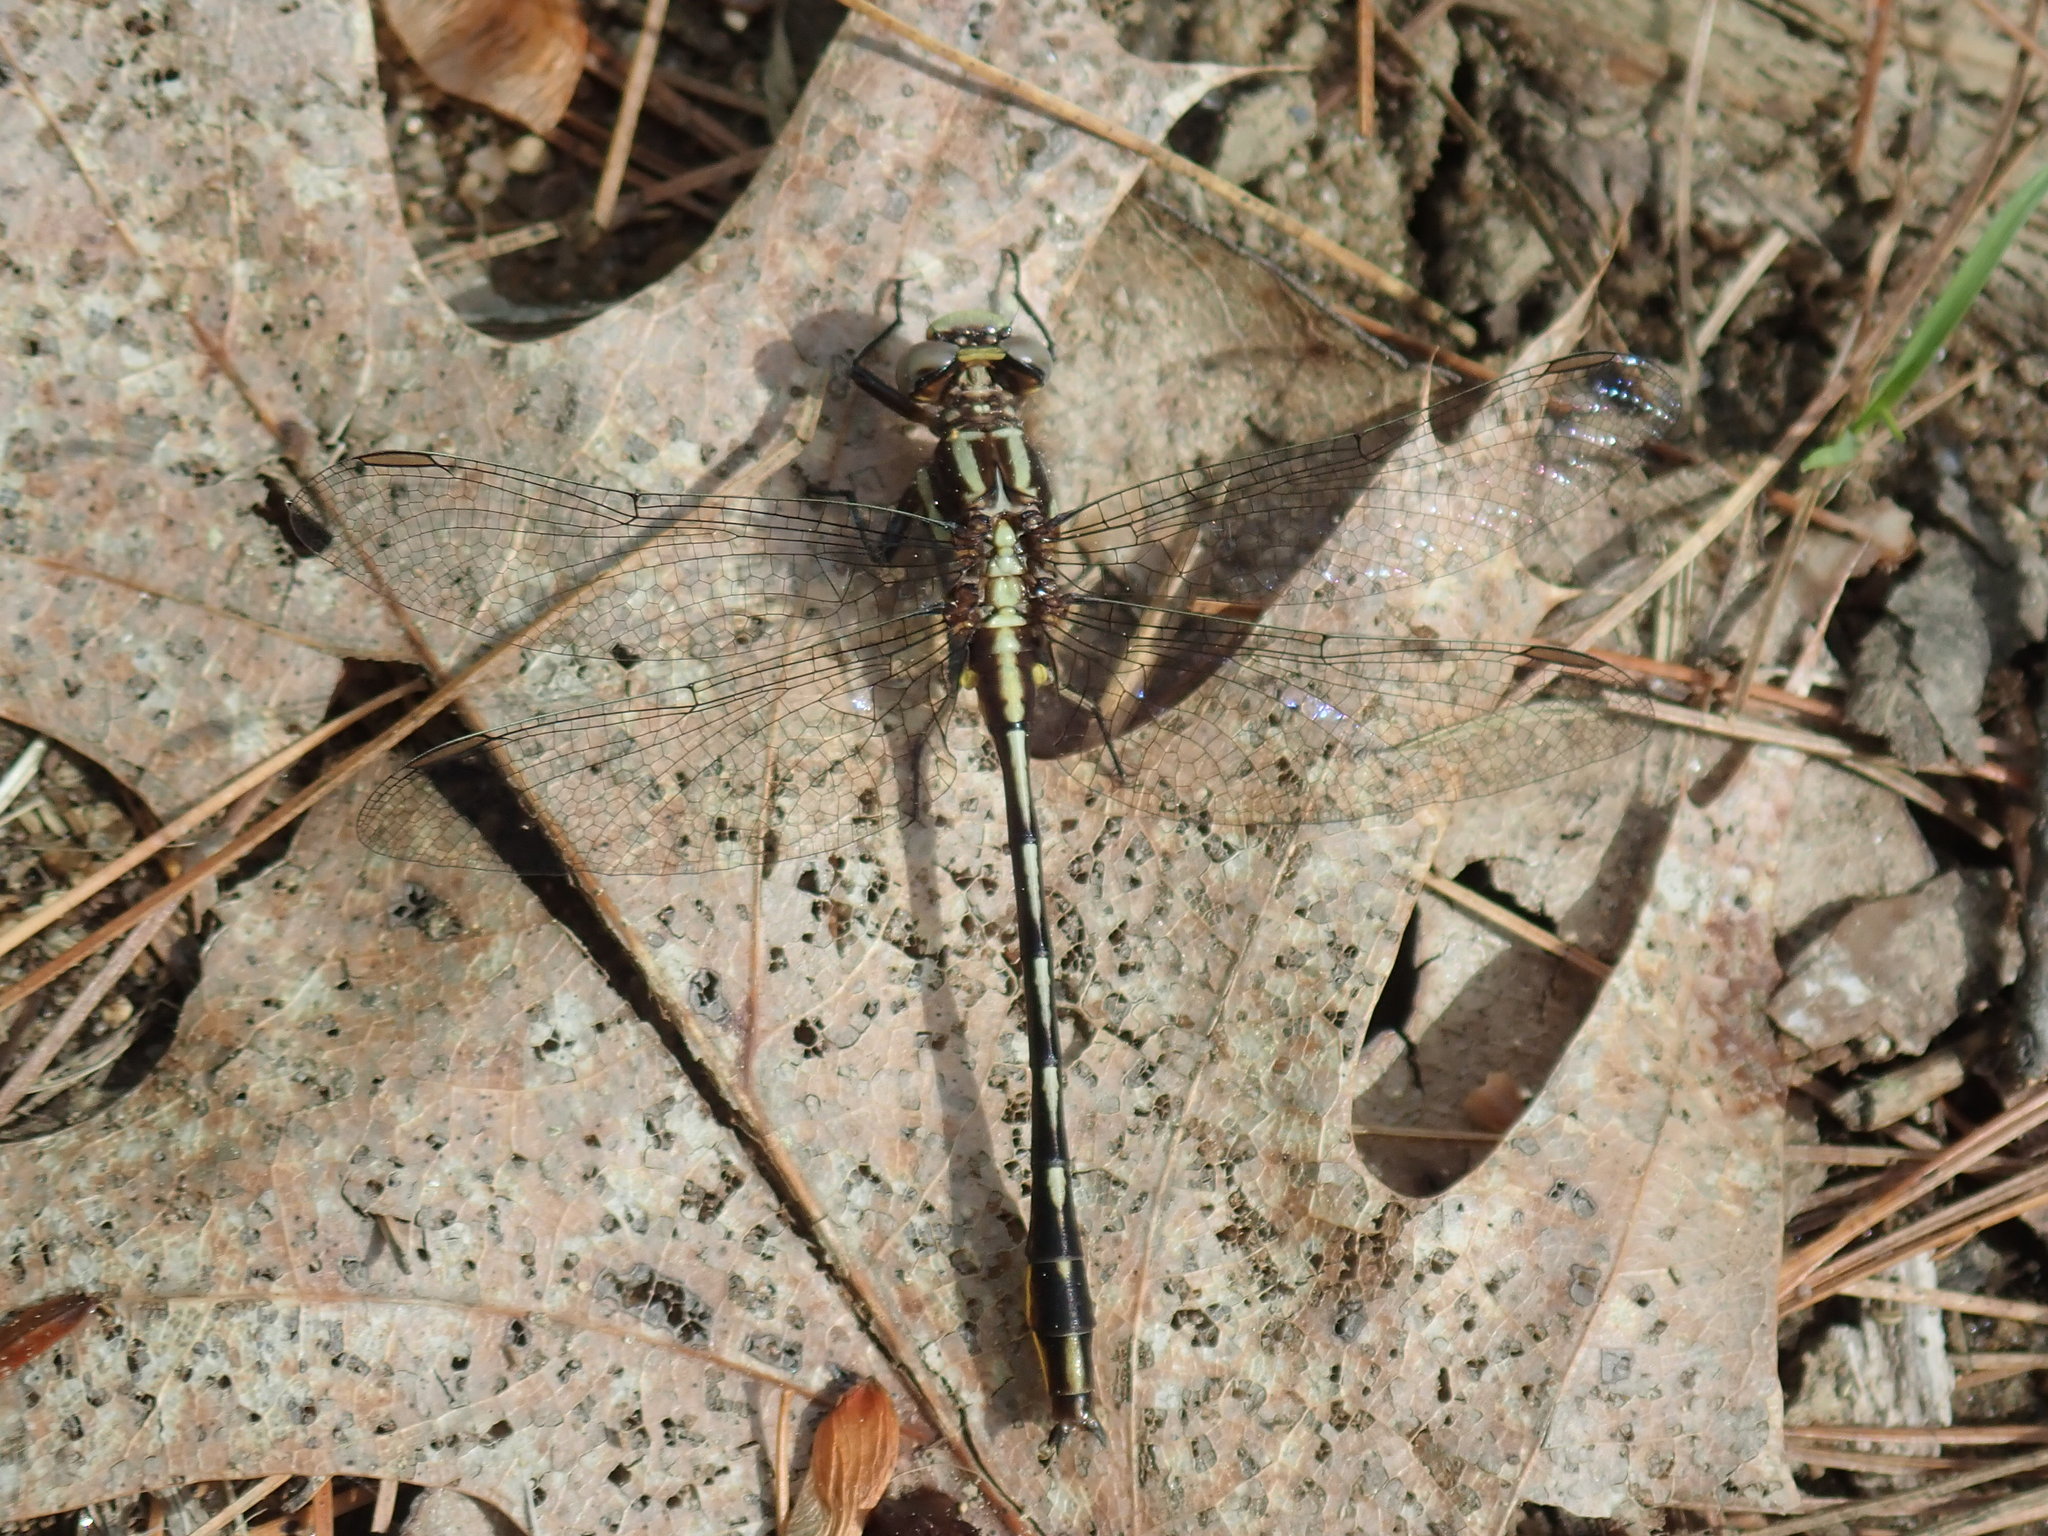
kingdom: Animalia
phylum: Arthropoda
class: Insecta
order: Odonata
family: Gomphidae
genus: Phanogomphus
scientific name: Phanogomphus exilis
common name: Lancet clubtail
